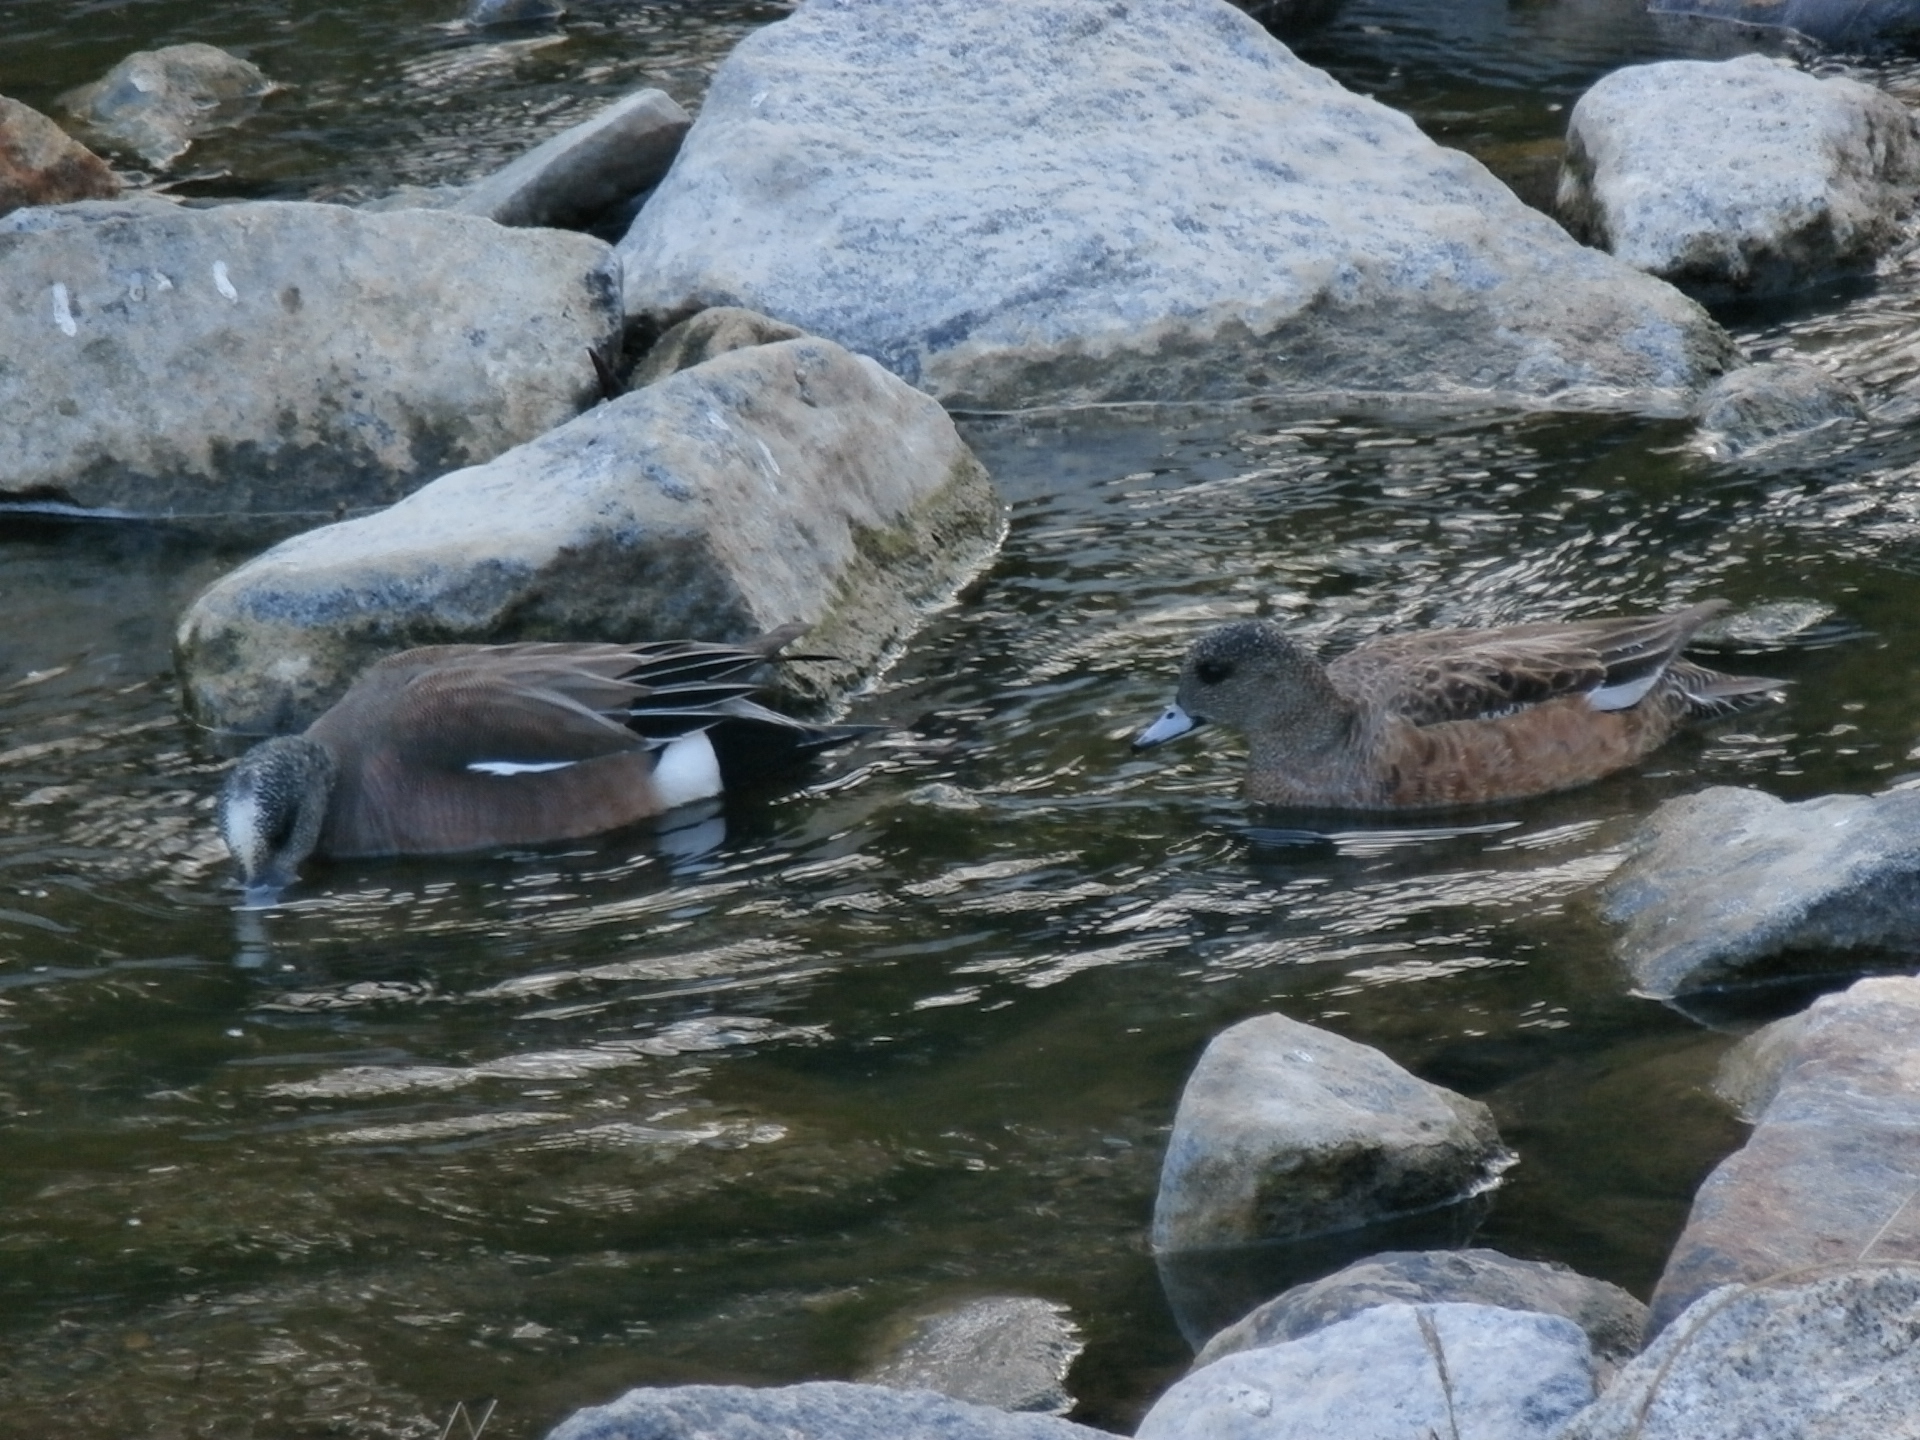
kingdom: Animalia
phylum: Chordata
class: Aves
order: Anseriformes
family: Anatidae
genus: Mareca
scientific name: Mareca americana
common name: American wigeon
